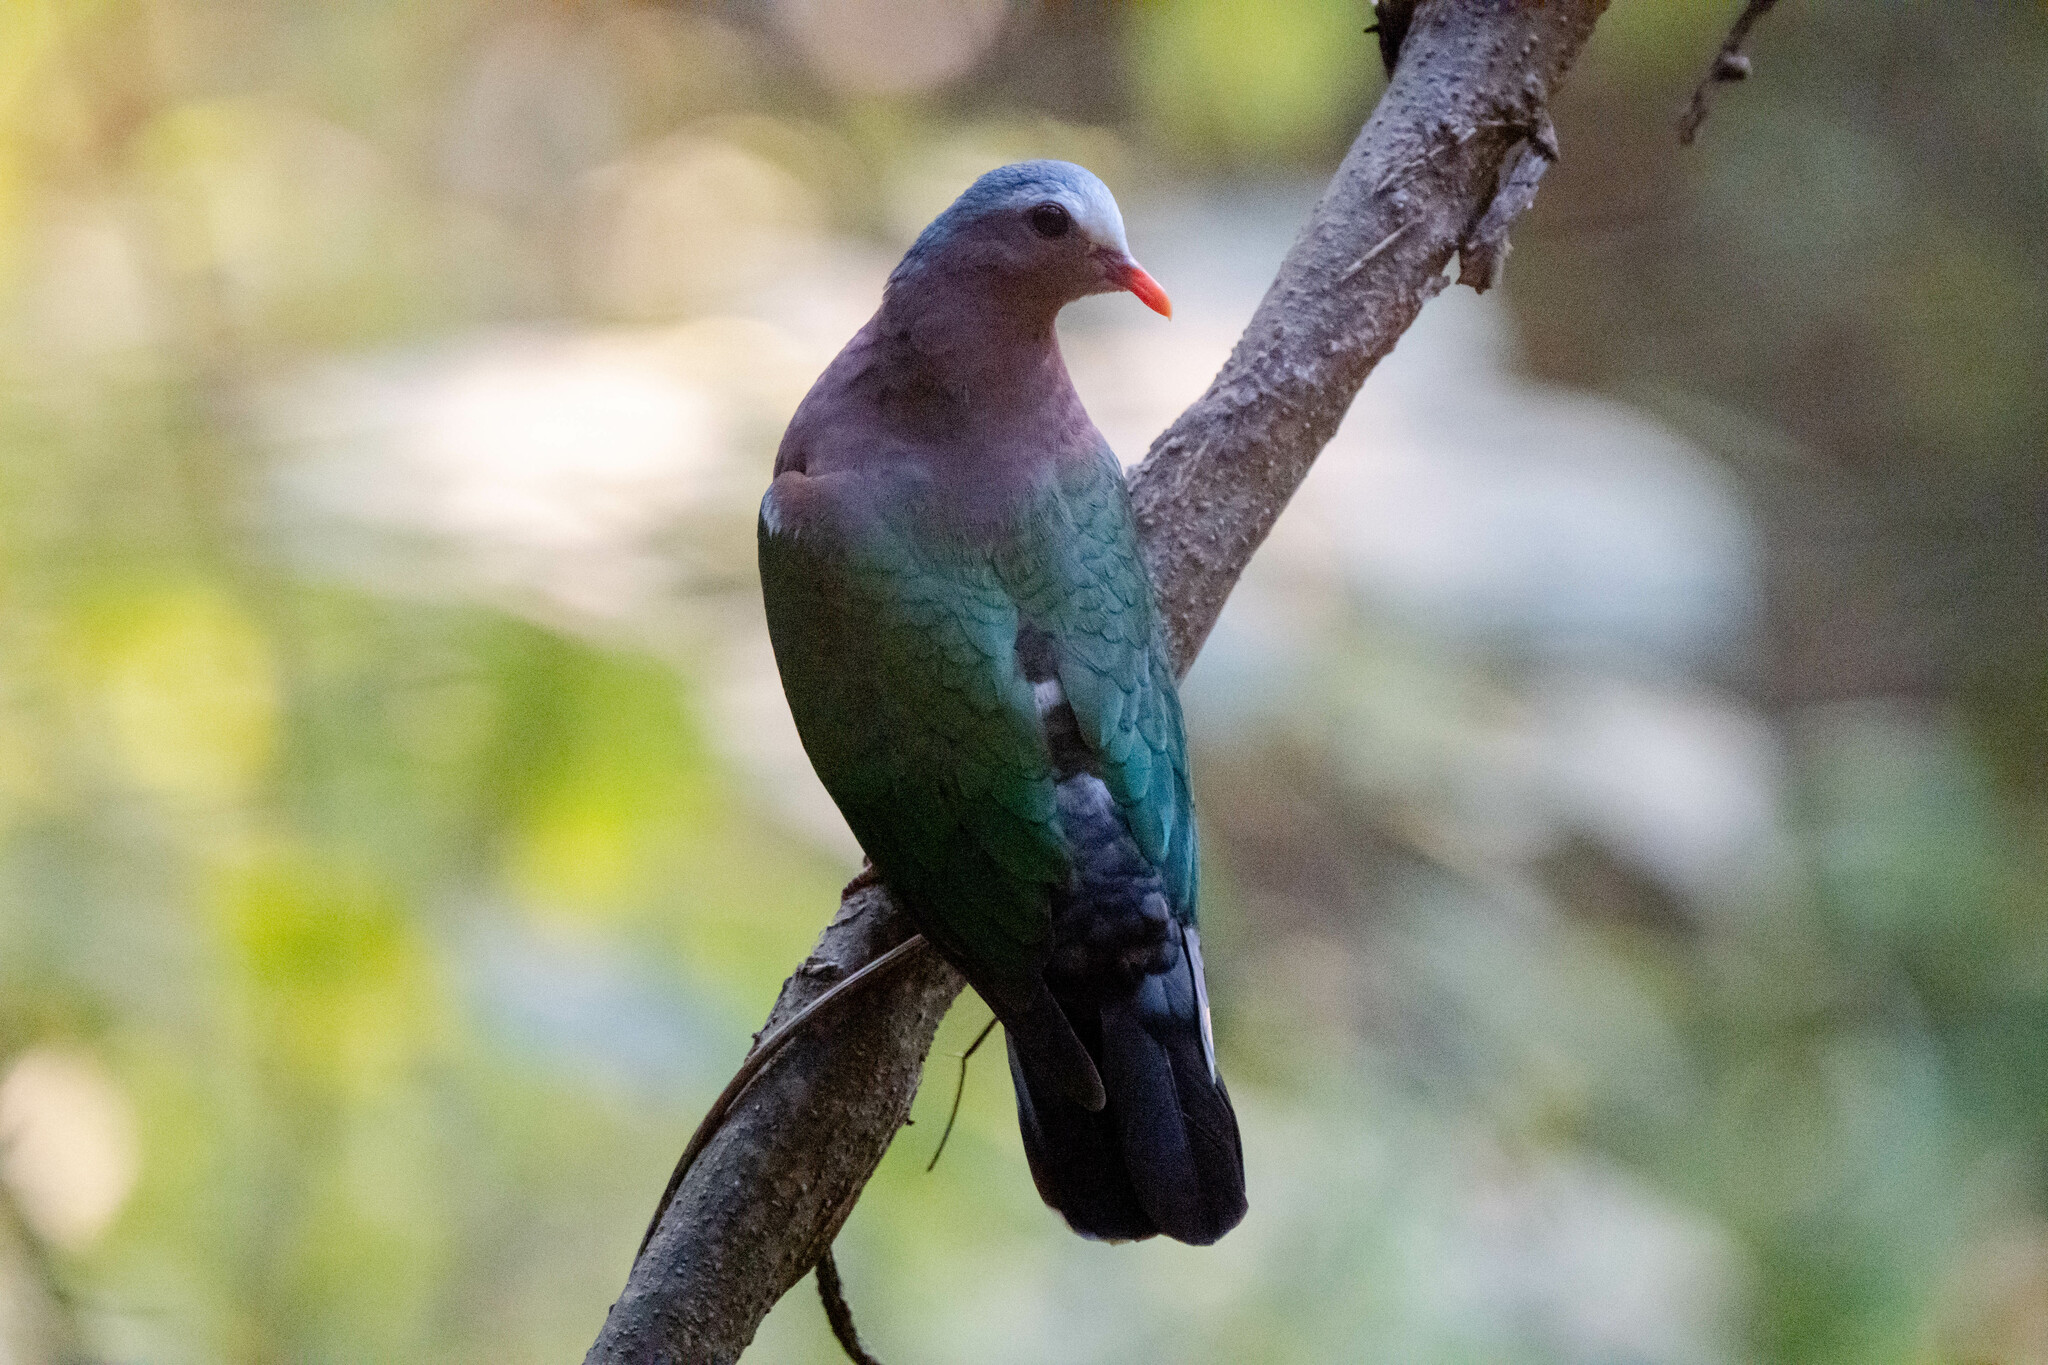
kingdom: Animalia
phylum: Chordata
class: Aves
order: Columbiformes
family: Columbidae
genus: Chalcophaps
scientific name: Chalcophaps indica
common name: Common emerald dove
